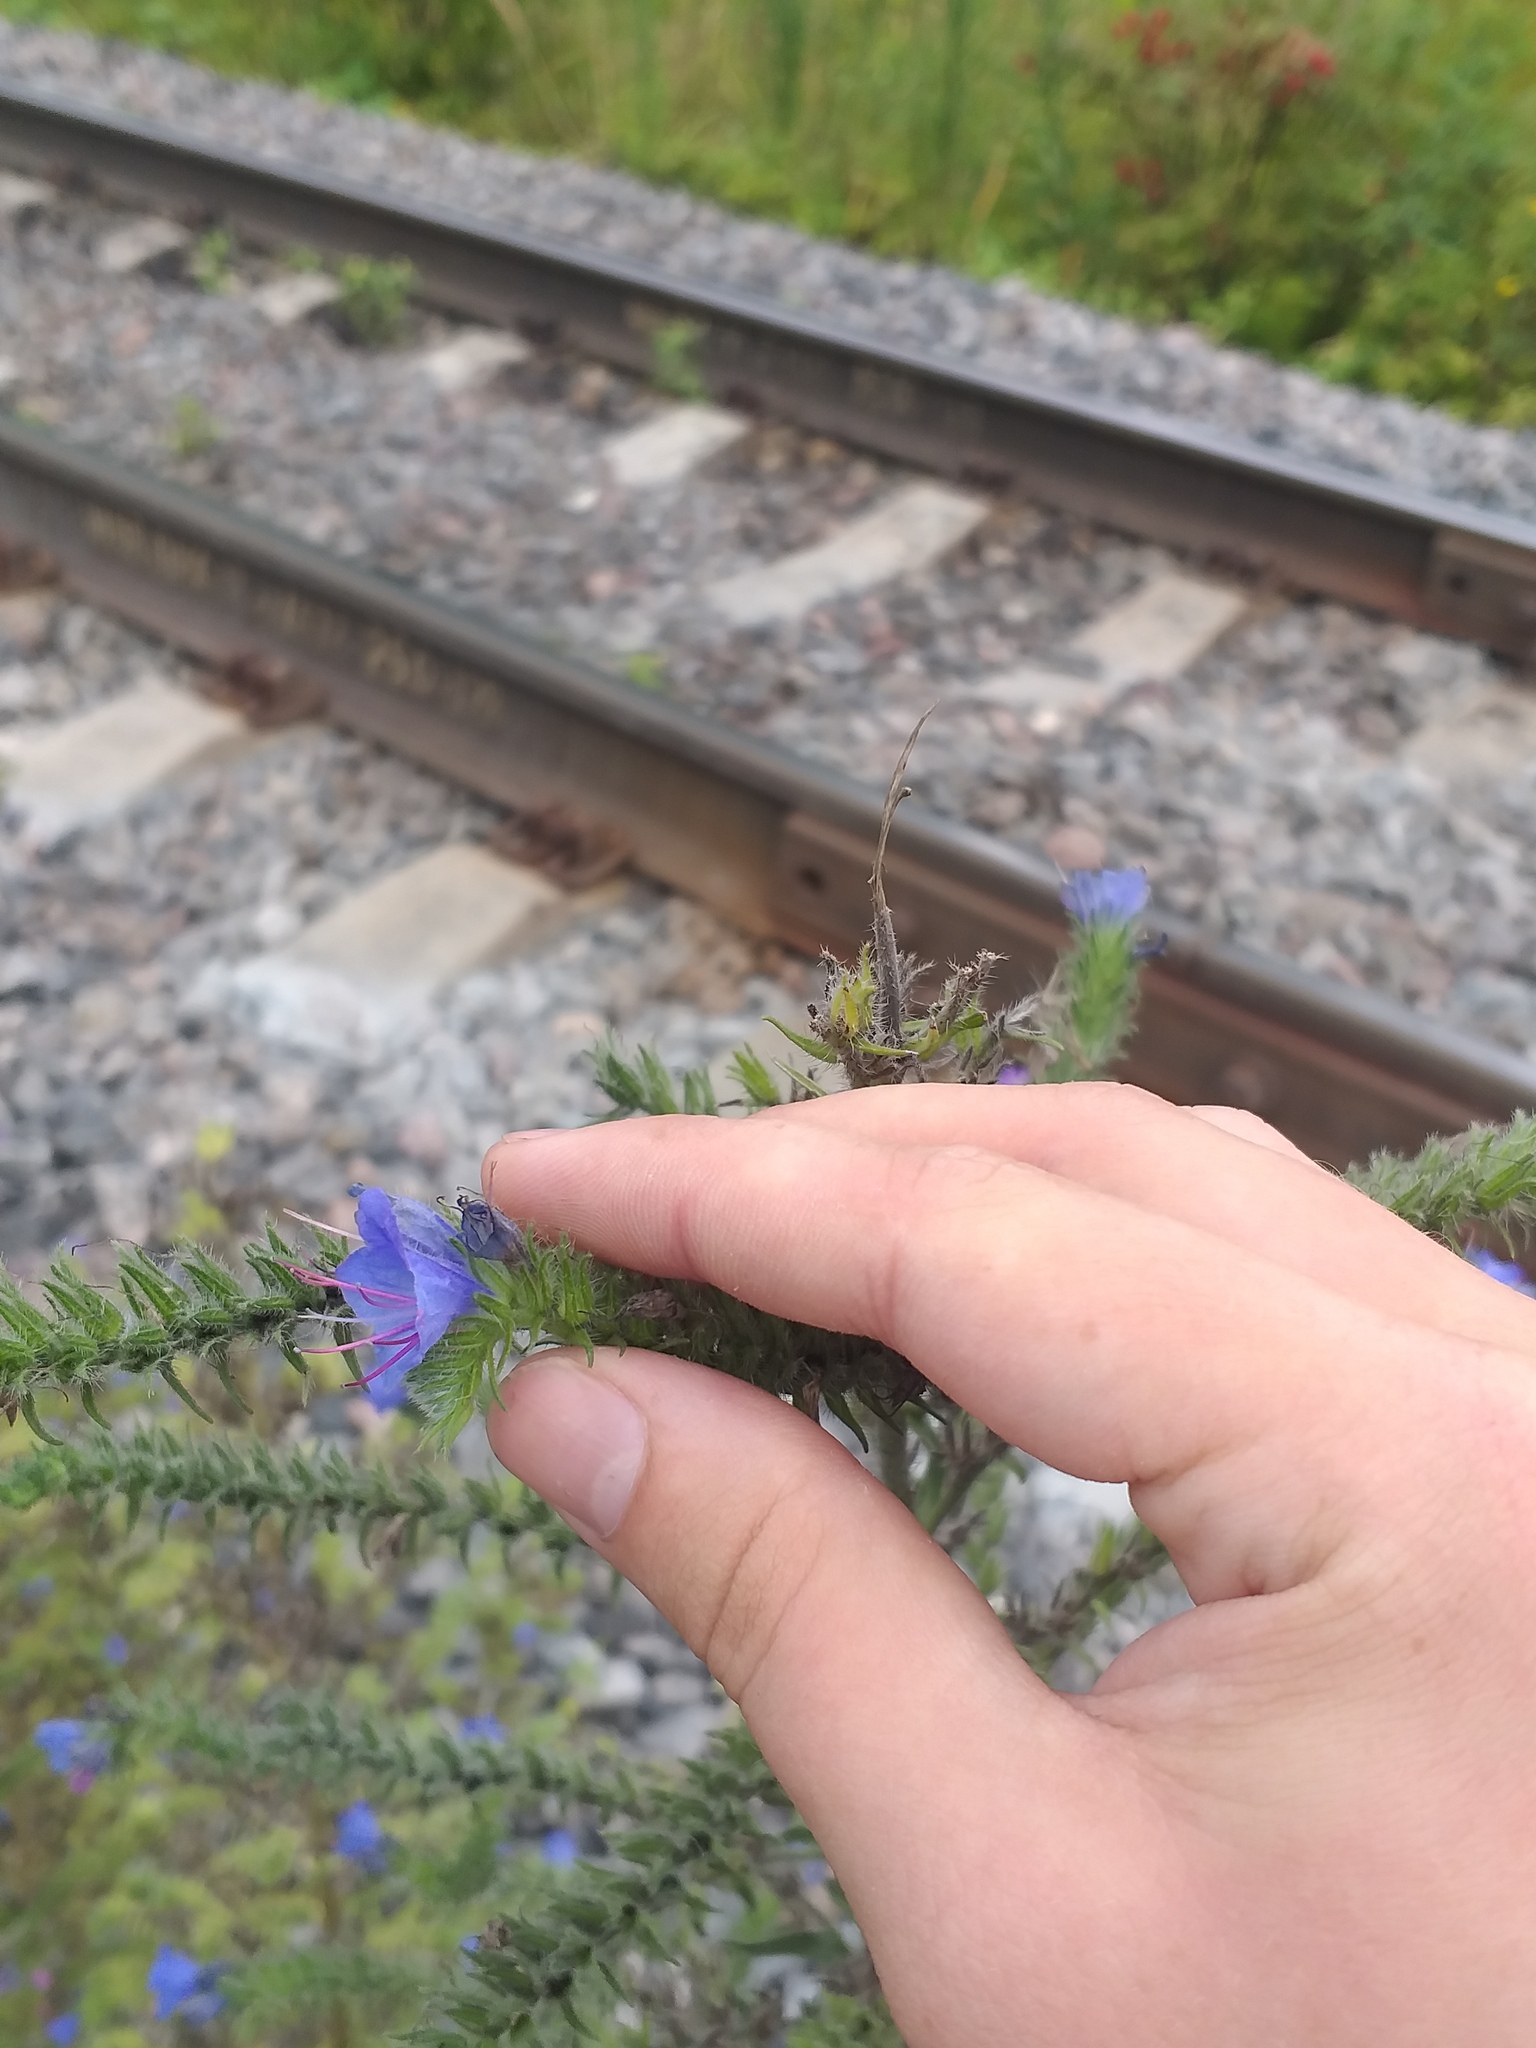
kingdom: Plantae
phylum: Tracheophyta
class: Magnoliopsida
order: Boraginales
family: Boraginaceae
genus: Echium
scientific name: Echium vulgare
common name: Common viper's bugloss
